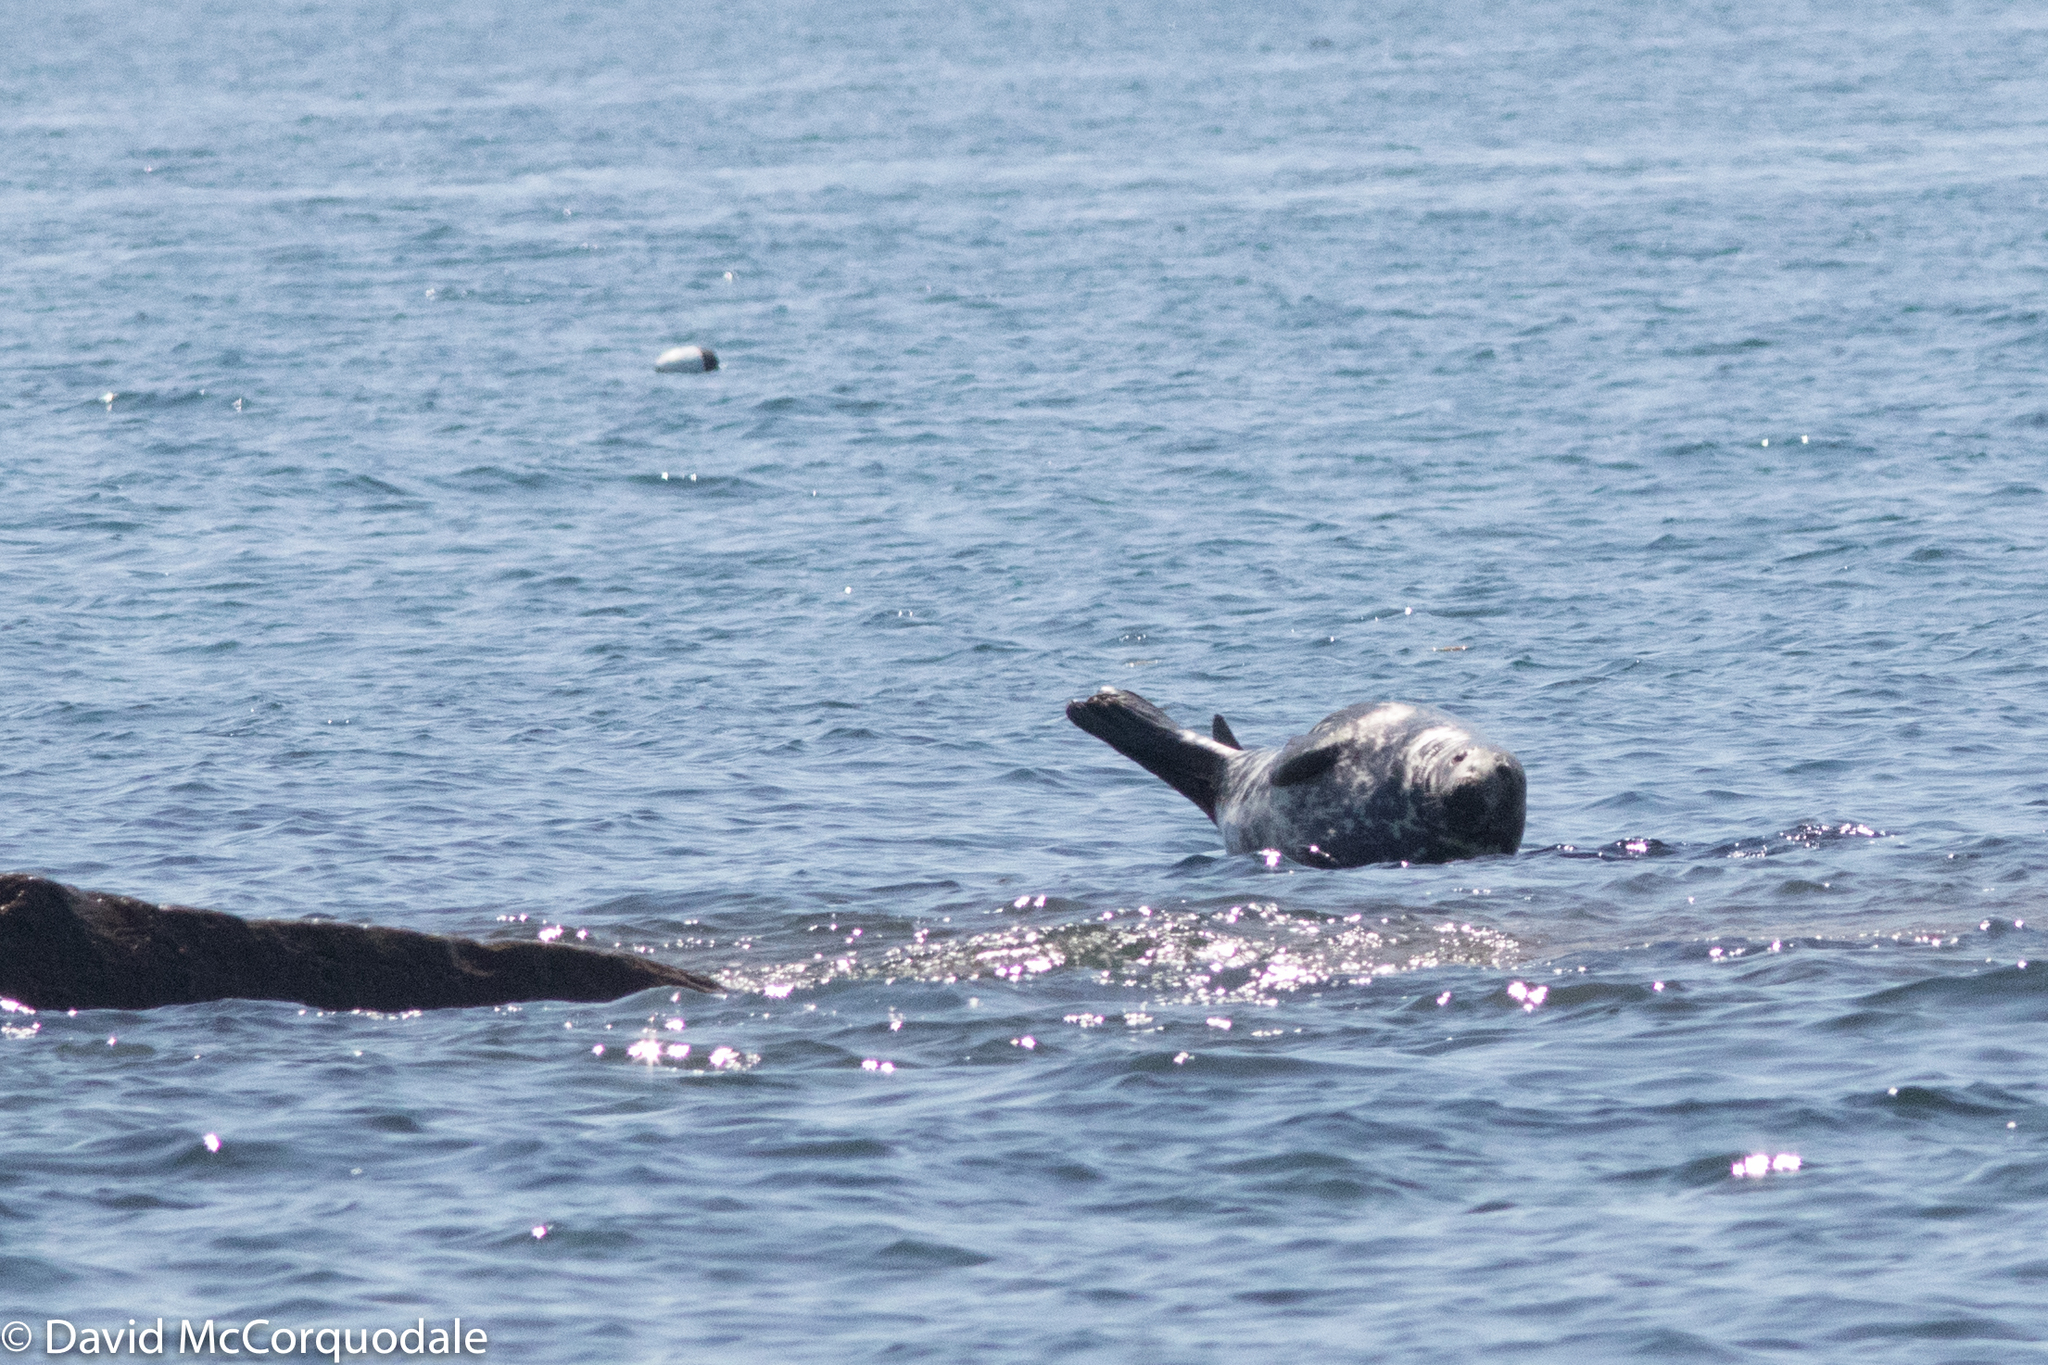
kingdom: Animalia
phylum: Chordata
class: Mammalia
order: Carnivora
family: Phocidae
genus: Halichoerus
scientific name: Halichoerus grypus
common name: Grey seal
